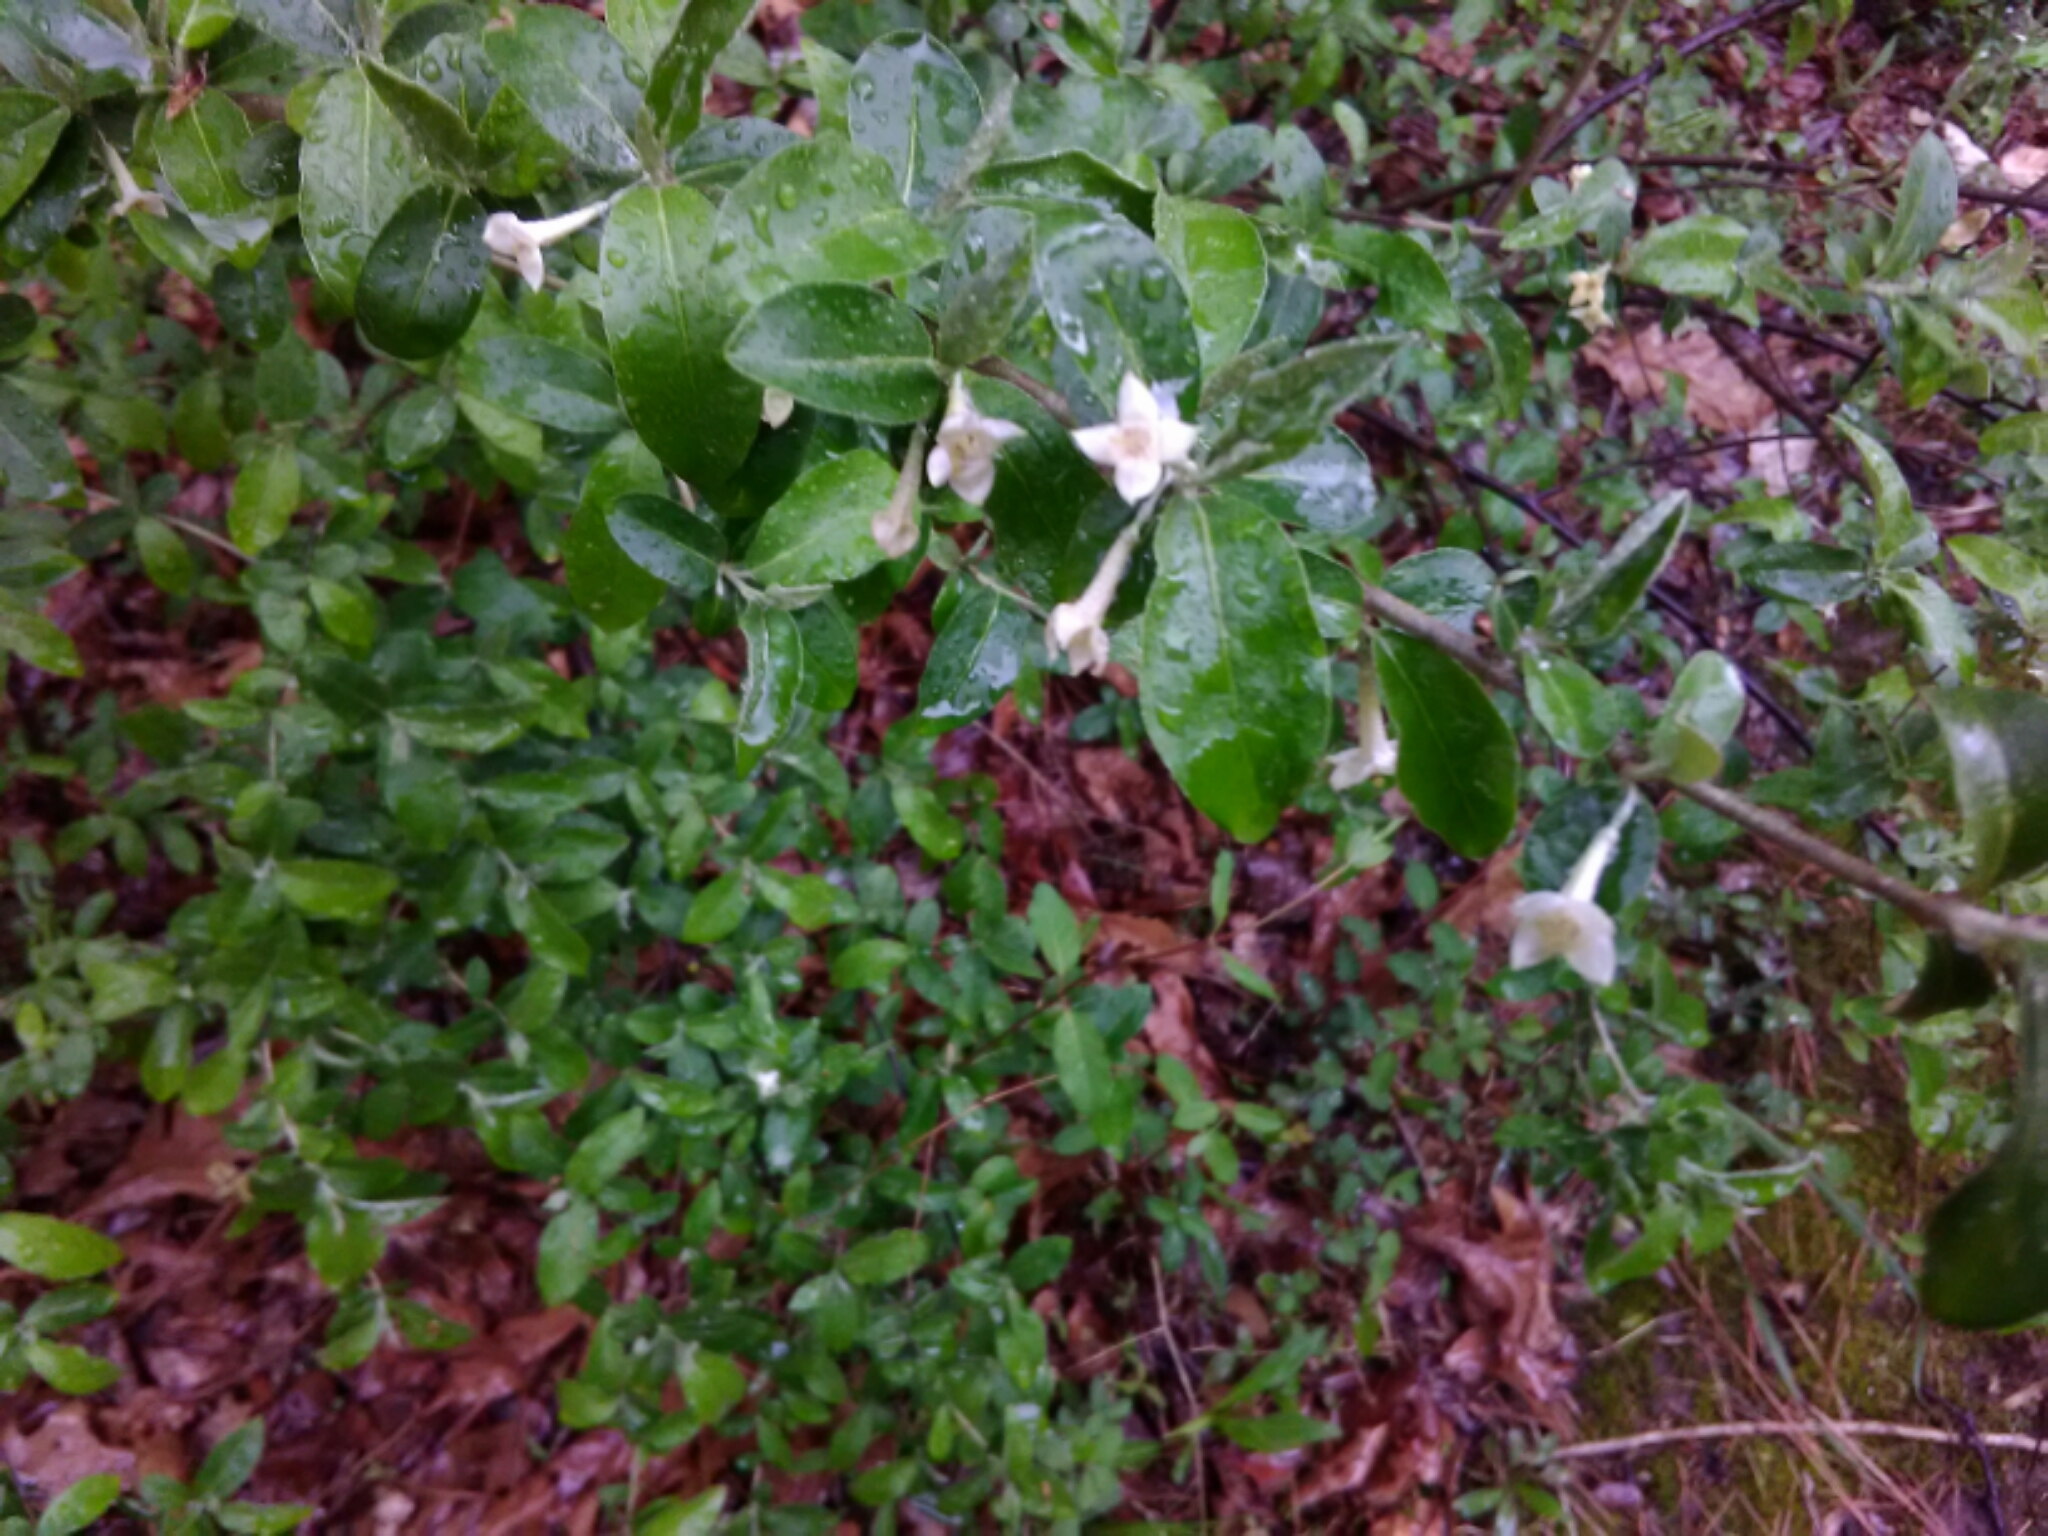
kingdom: Plantae
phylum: Tracheophyta
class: Magnoliopsida
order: Rosales
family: Elaeagnaceae
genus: Elaeagnus
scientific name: Elaeagnus umbellata
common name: Autumn olive
